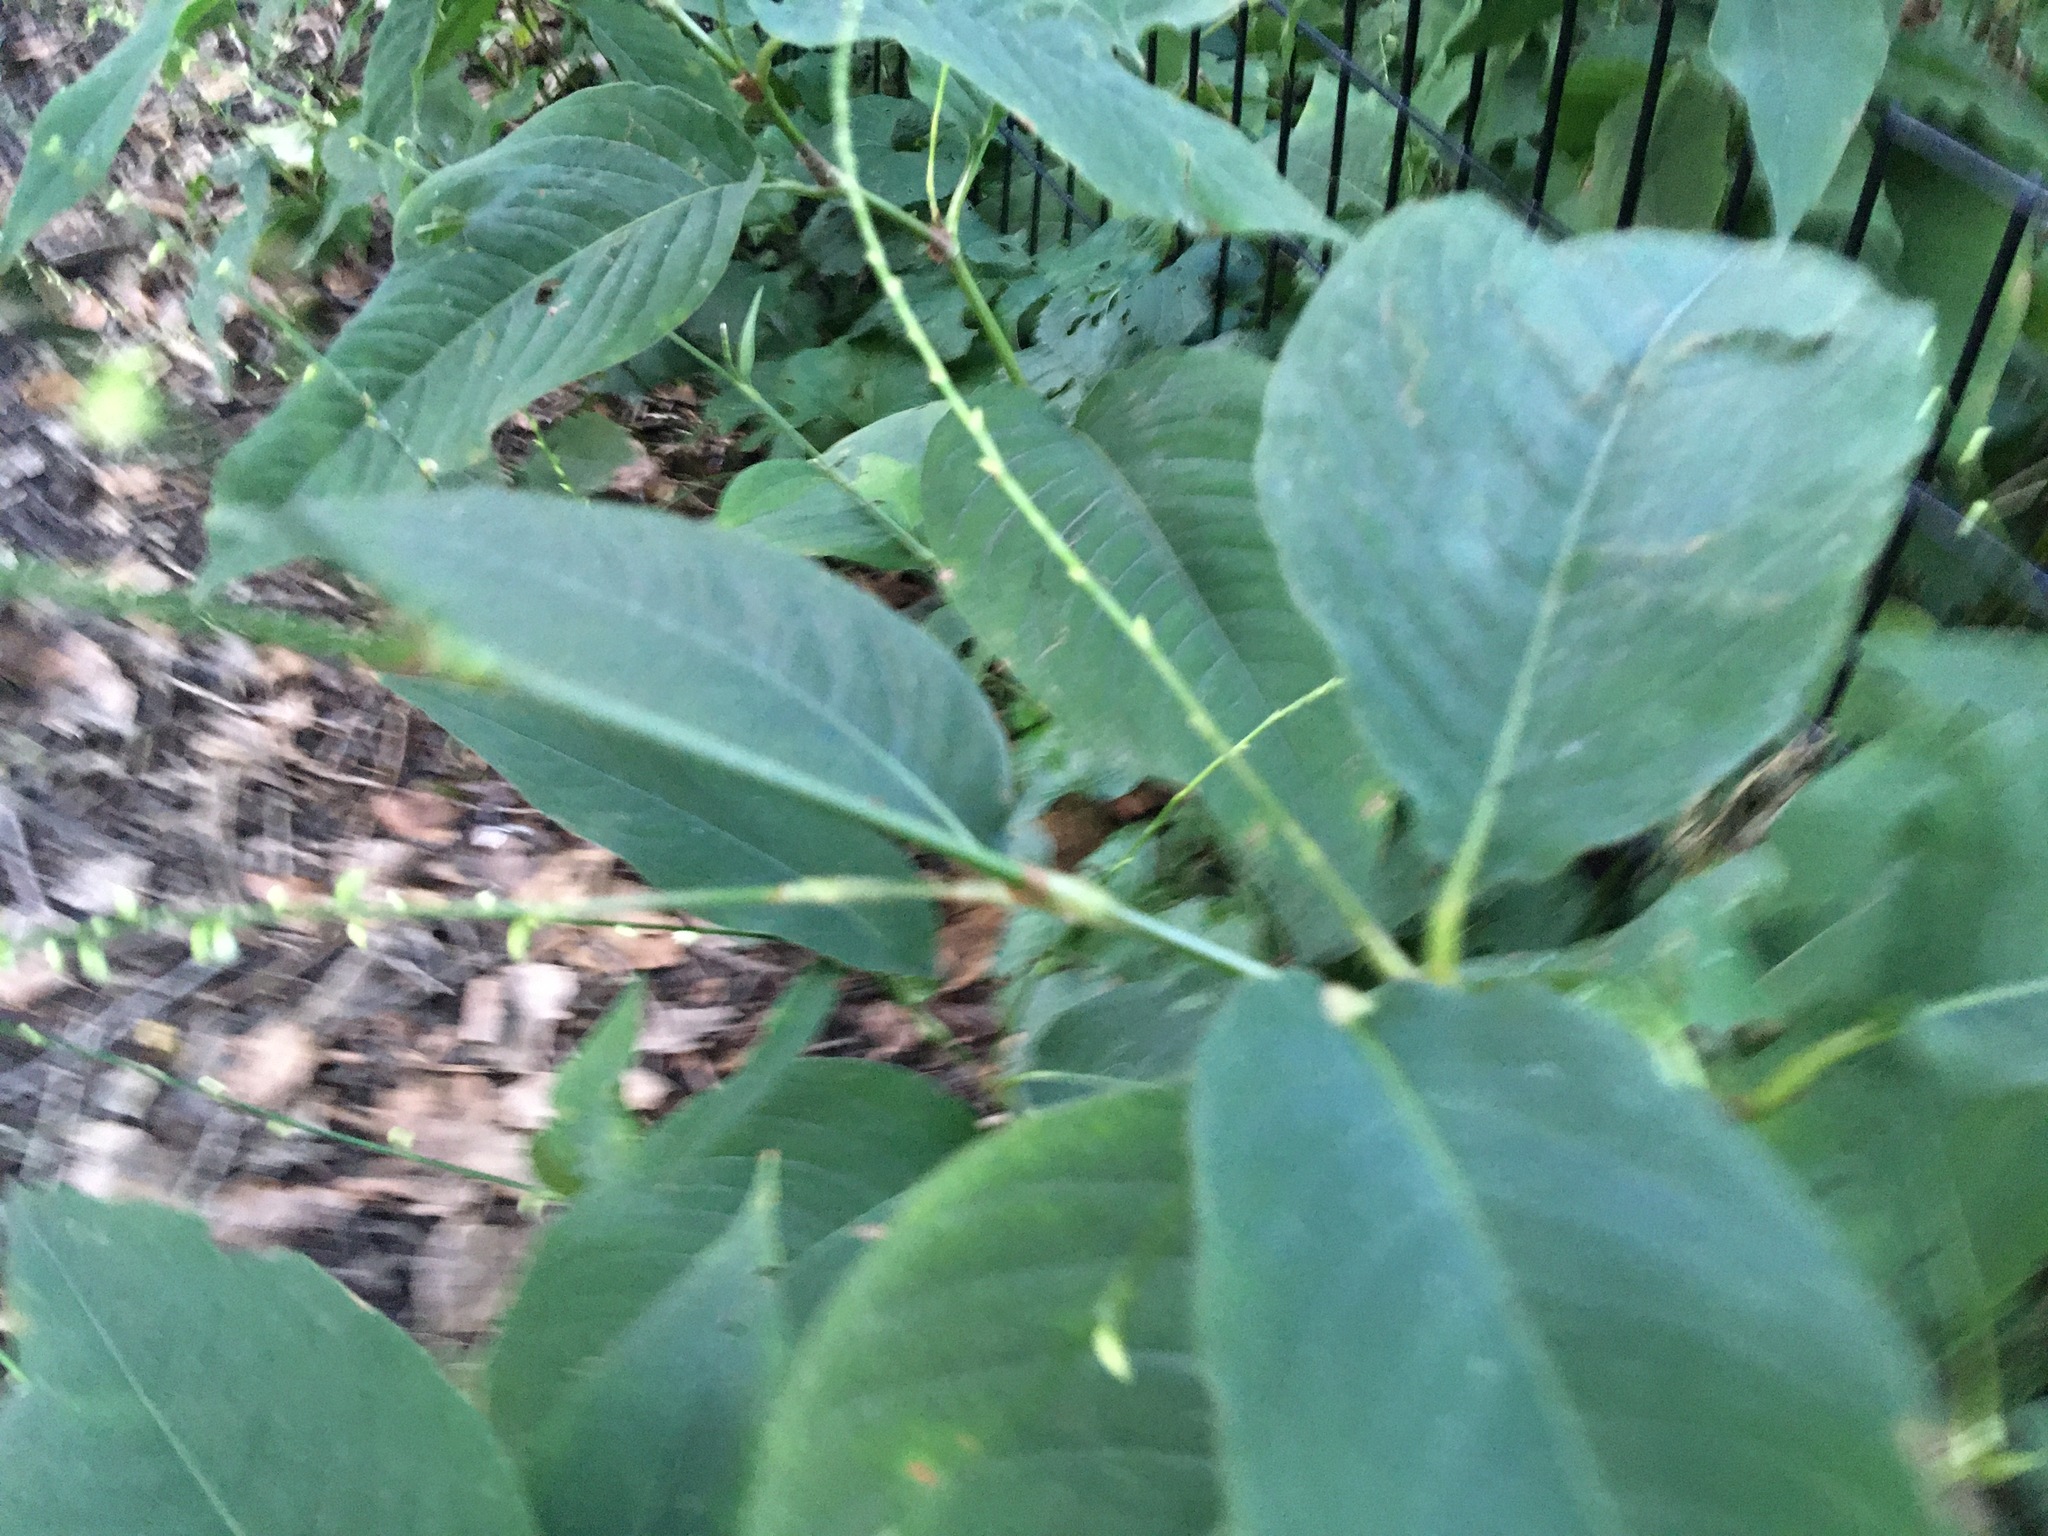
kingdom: Plantae
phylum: Tracheophyta
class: Magnoliopsida
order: Caryophyllales
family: Polygonaceae
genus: Persicaria
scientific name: Persicaria virginiana
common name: Jumpseed
